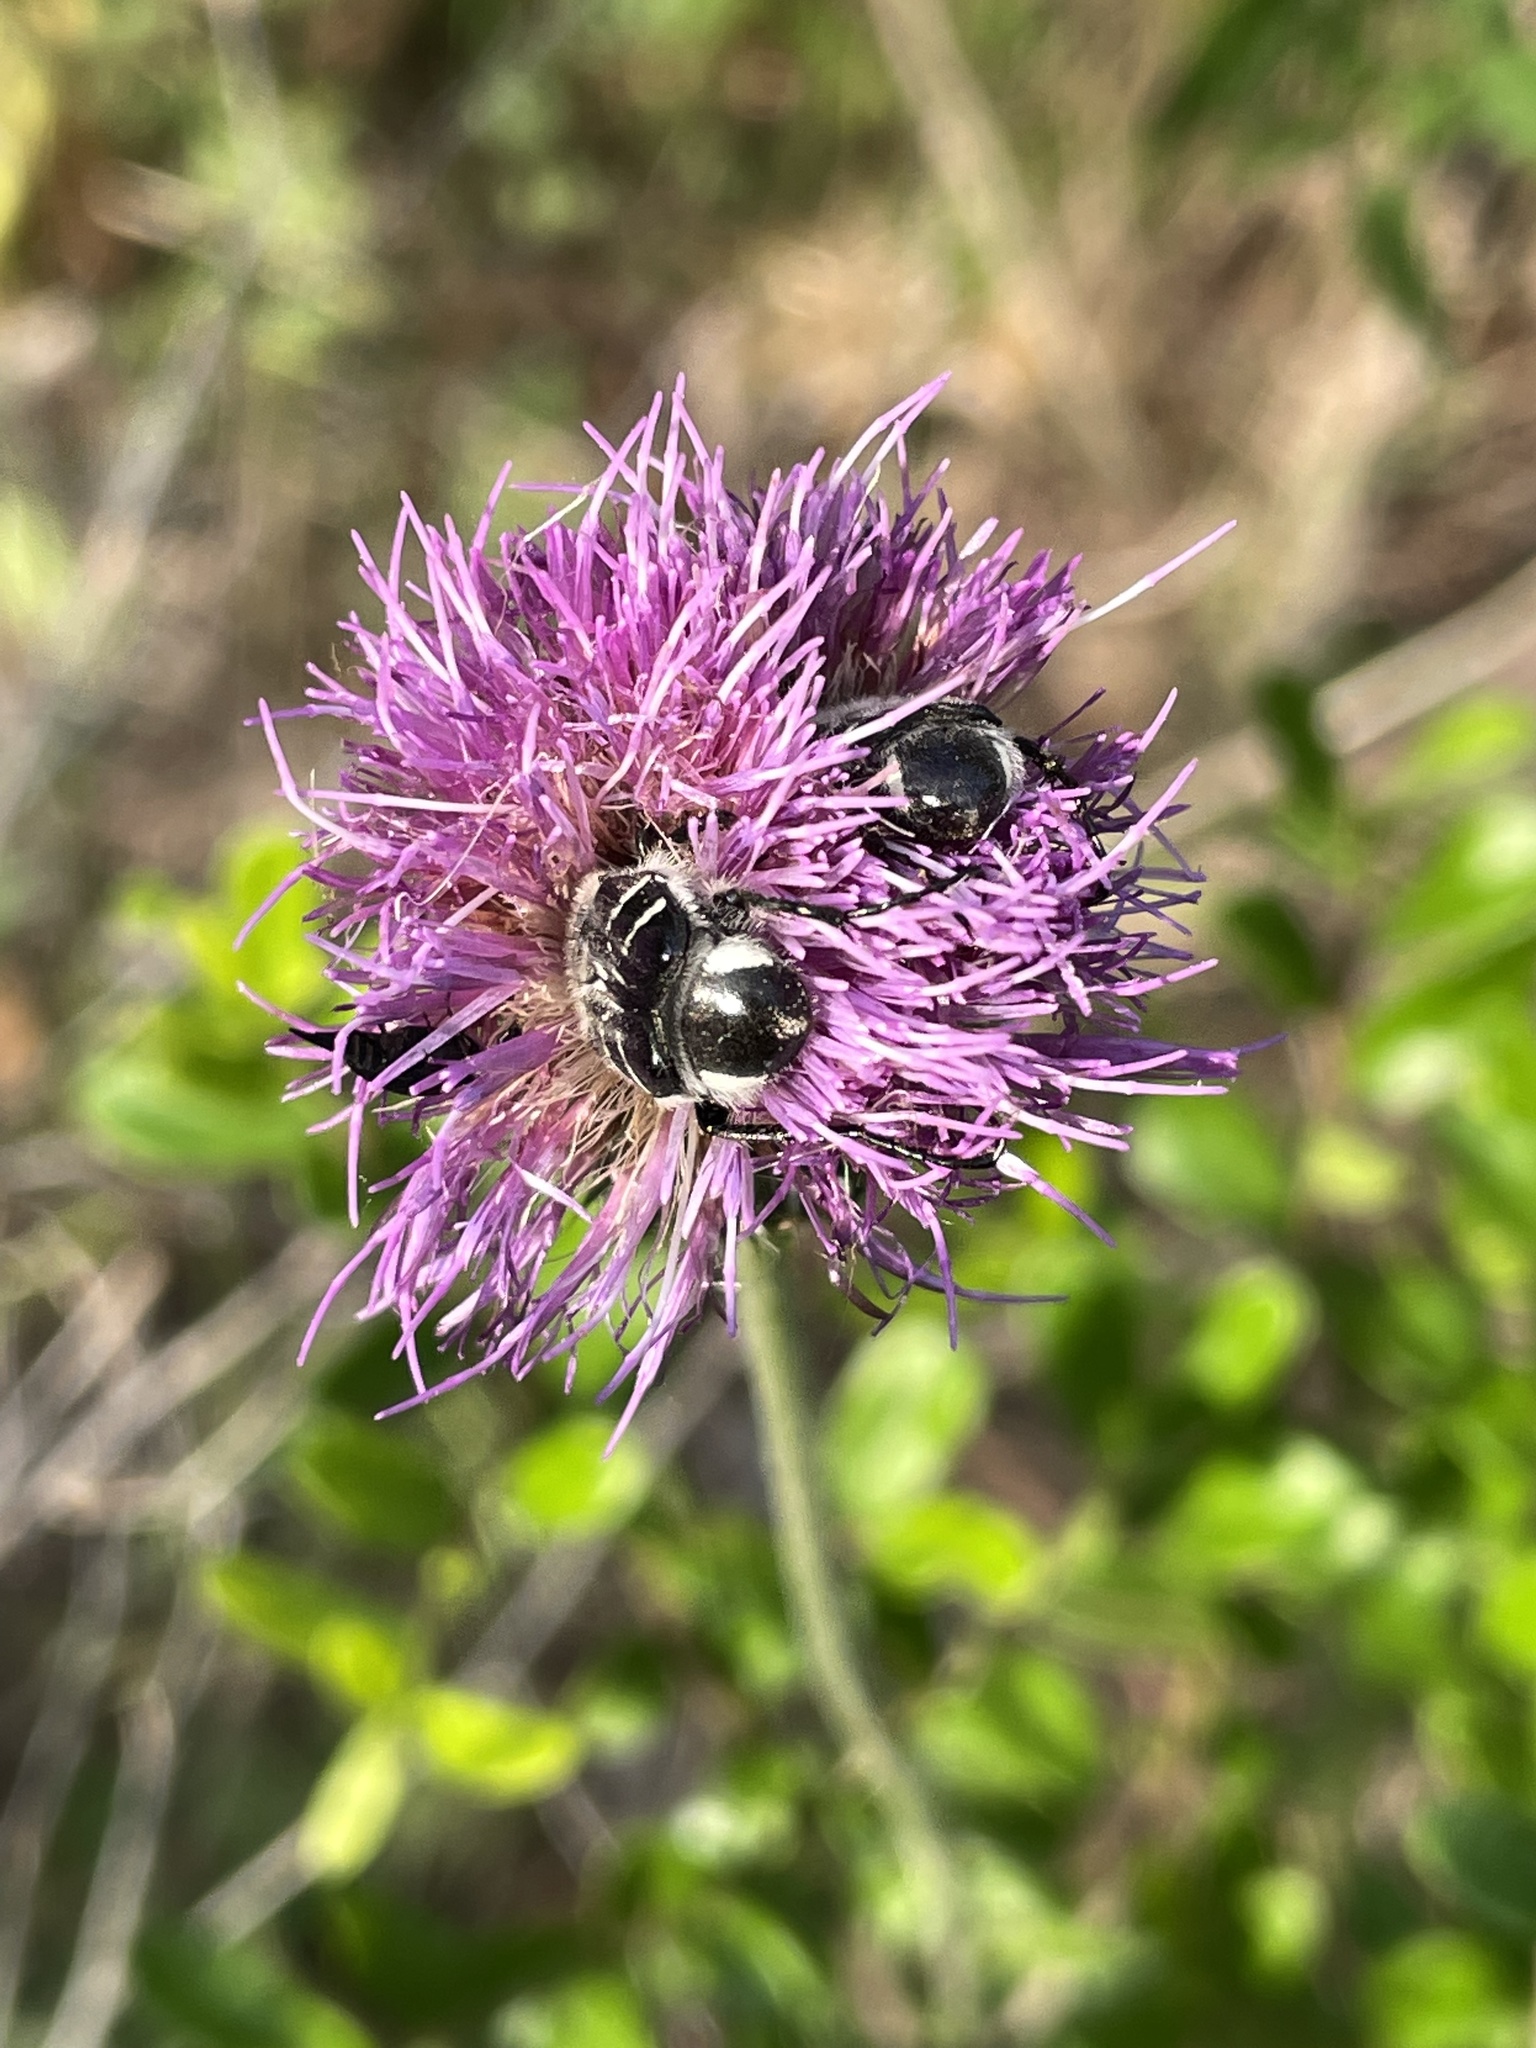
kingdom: Animalia
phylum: Arthropoda
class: Insecta
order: Coleoptera
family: Scarabaeidae
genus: Trichiotinus
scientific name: Trichiotinus texanus
